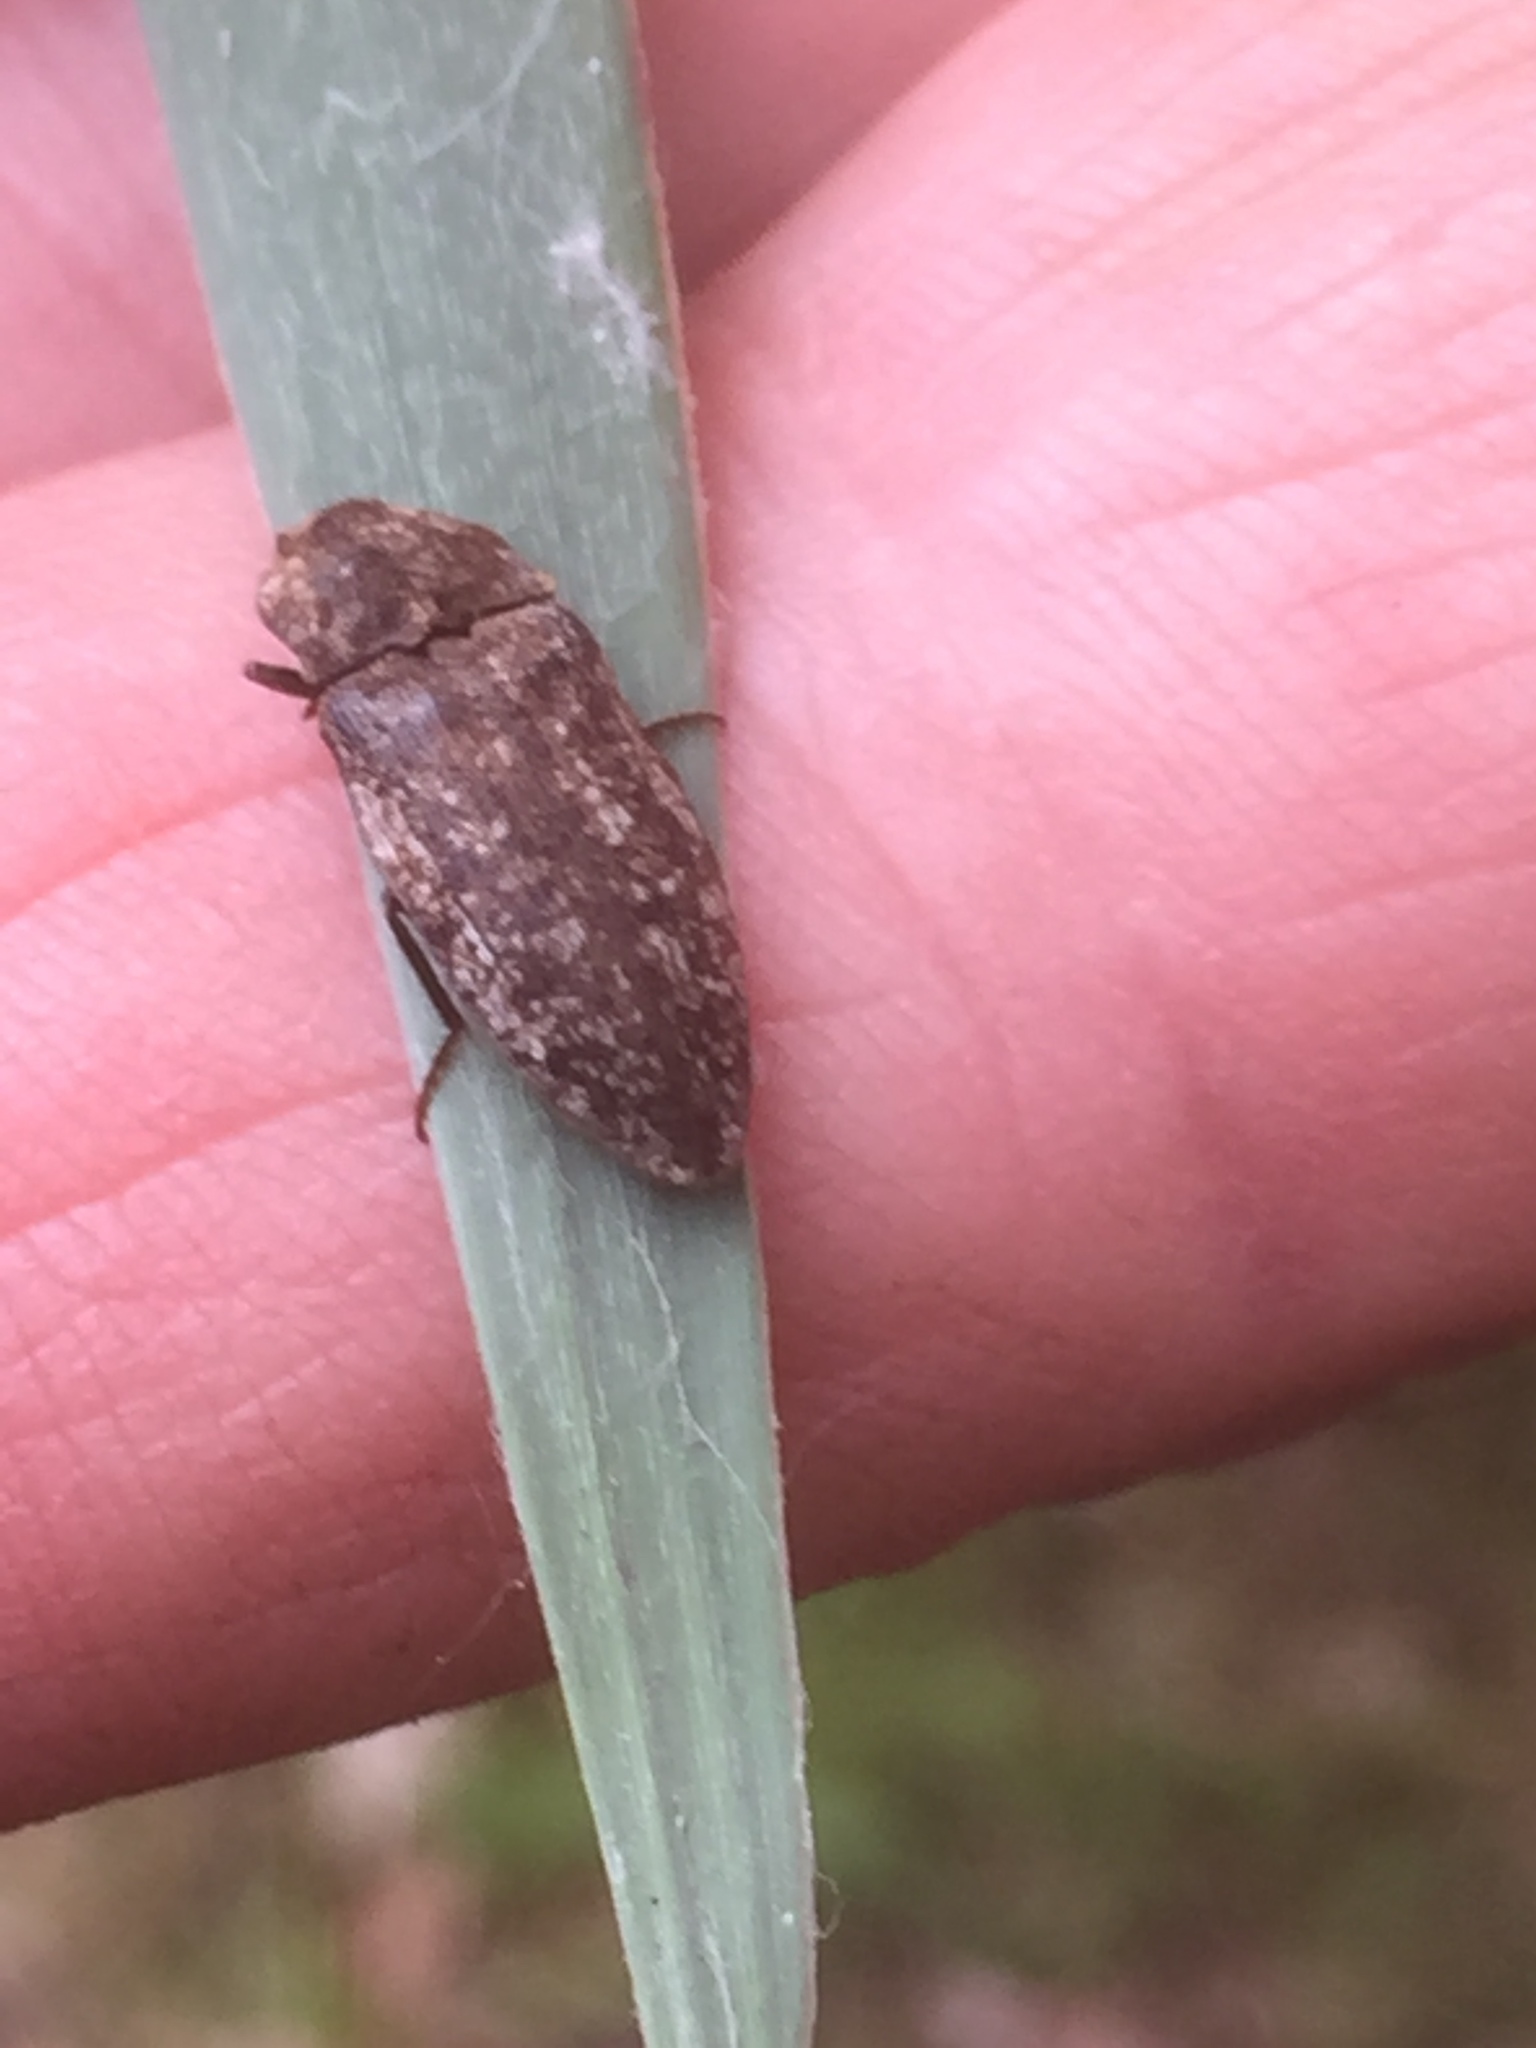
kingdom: Animalia
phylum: Arthropoda
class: Insecta
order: Coleoptera
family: Elateridae
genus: Agrypnus
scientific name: Agrypnus murinus
